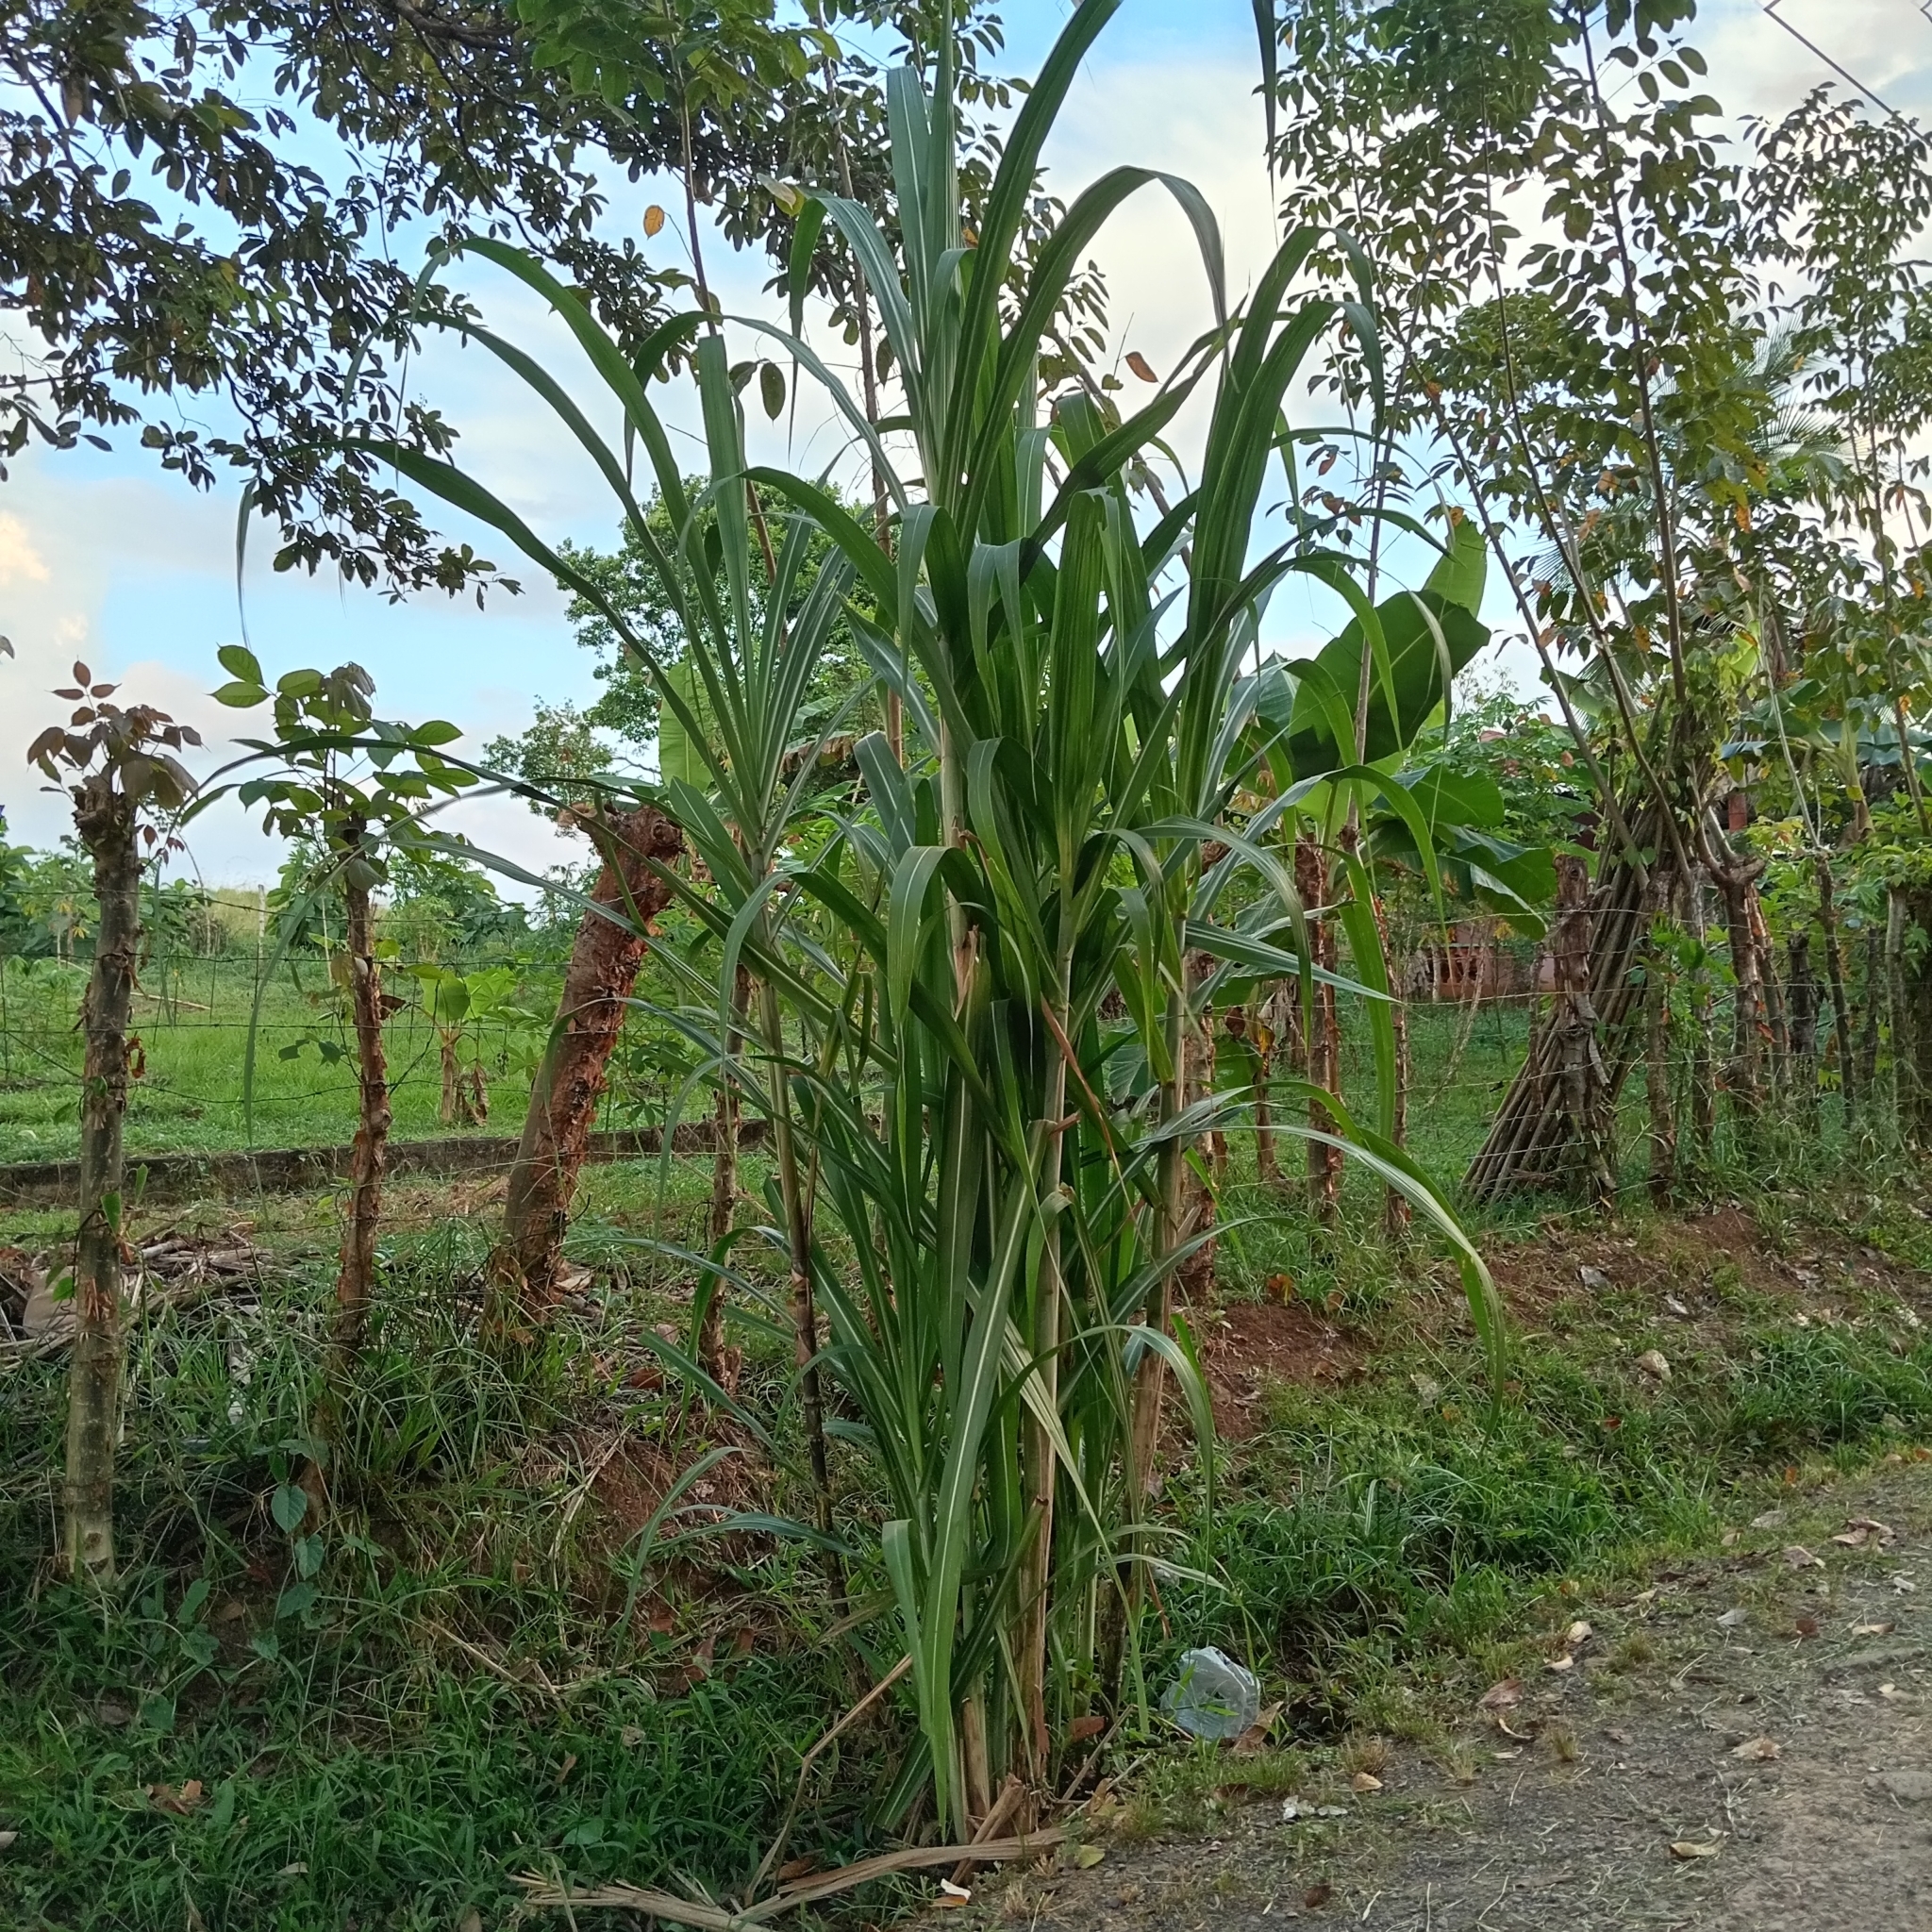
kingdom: Plantae
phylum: Tracheophyta
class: Liliopsida
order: Poales
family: Poaceae
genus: Saccharum
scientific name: Saccharum officinarum
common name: Sugarcane
